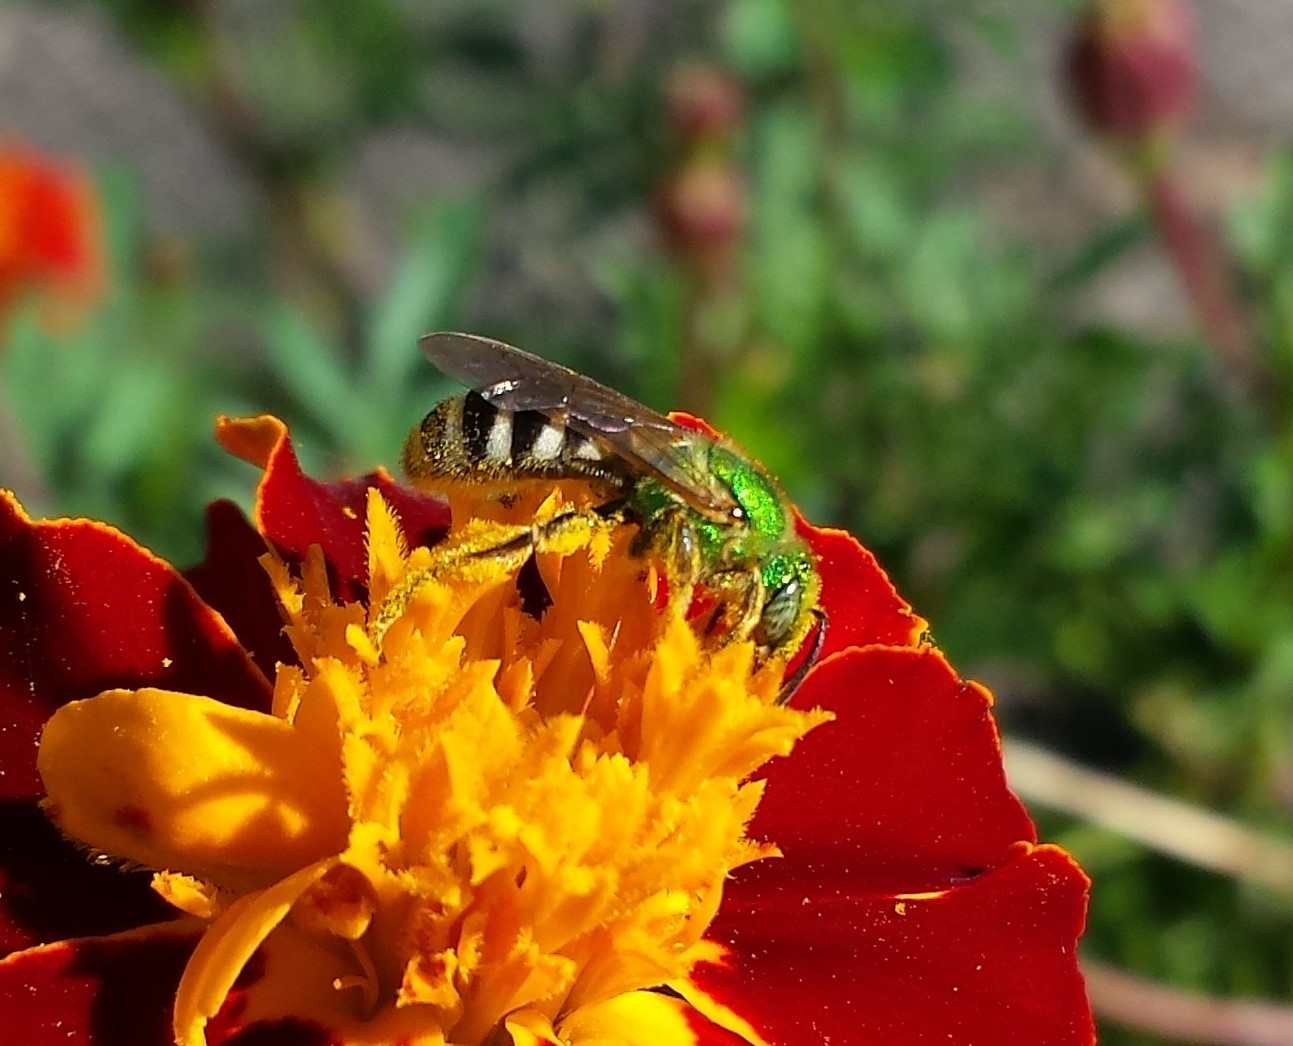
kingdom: Animalia
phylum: Arthropoda
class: Insecta
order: Hymenoptera
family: Halictidae
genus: Agapostemon
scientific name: Agapostemon virescens
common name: Bicolored striped sweat bee
